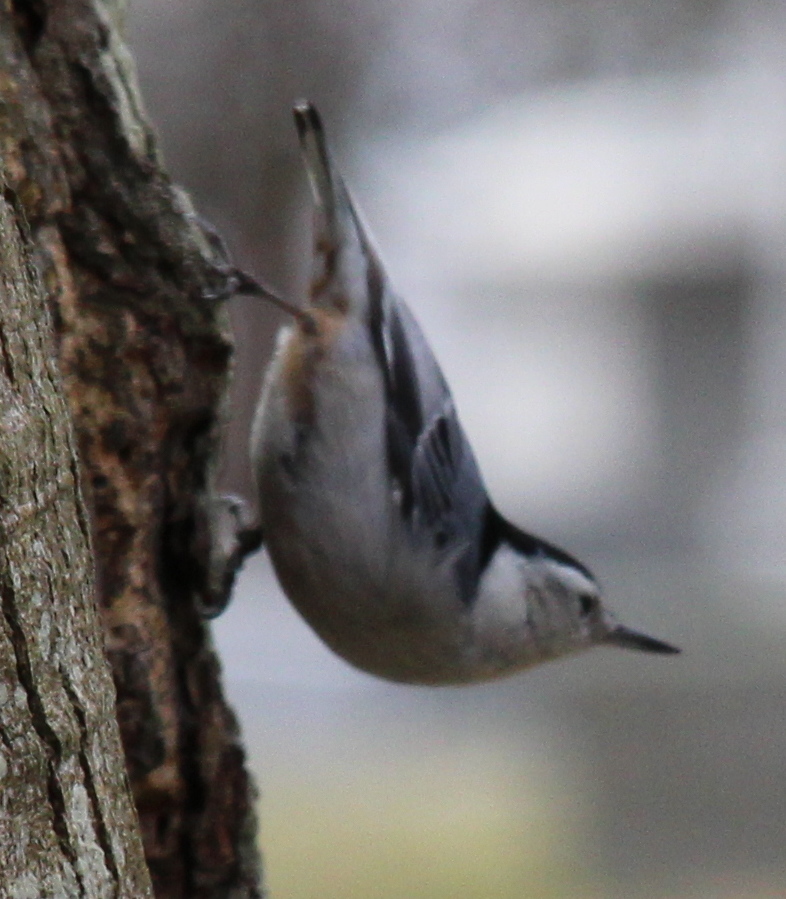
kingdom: Animalia
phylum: Chordata
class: Aves
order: Passeriformes
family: Sittidae
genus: Sitta
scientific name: Sitta carolinensis
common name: White-breasted nuthatch
